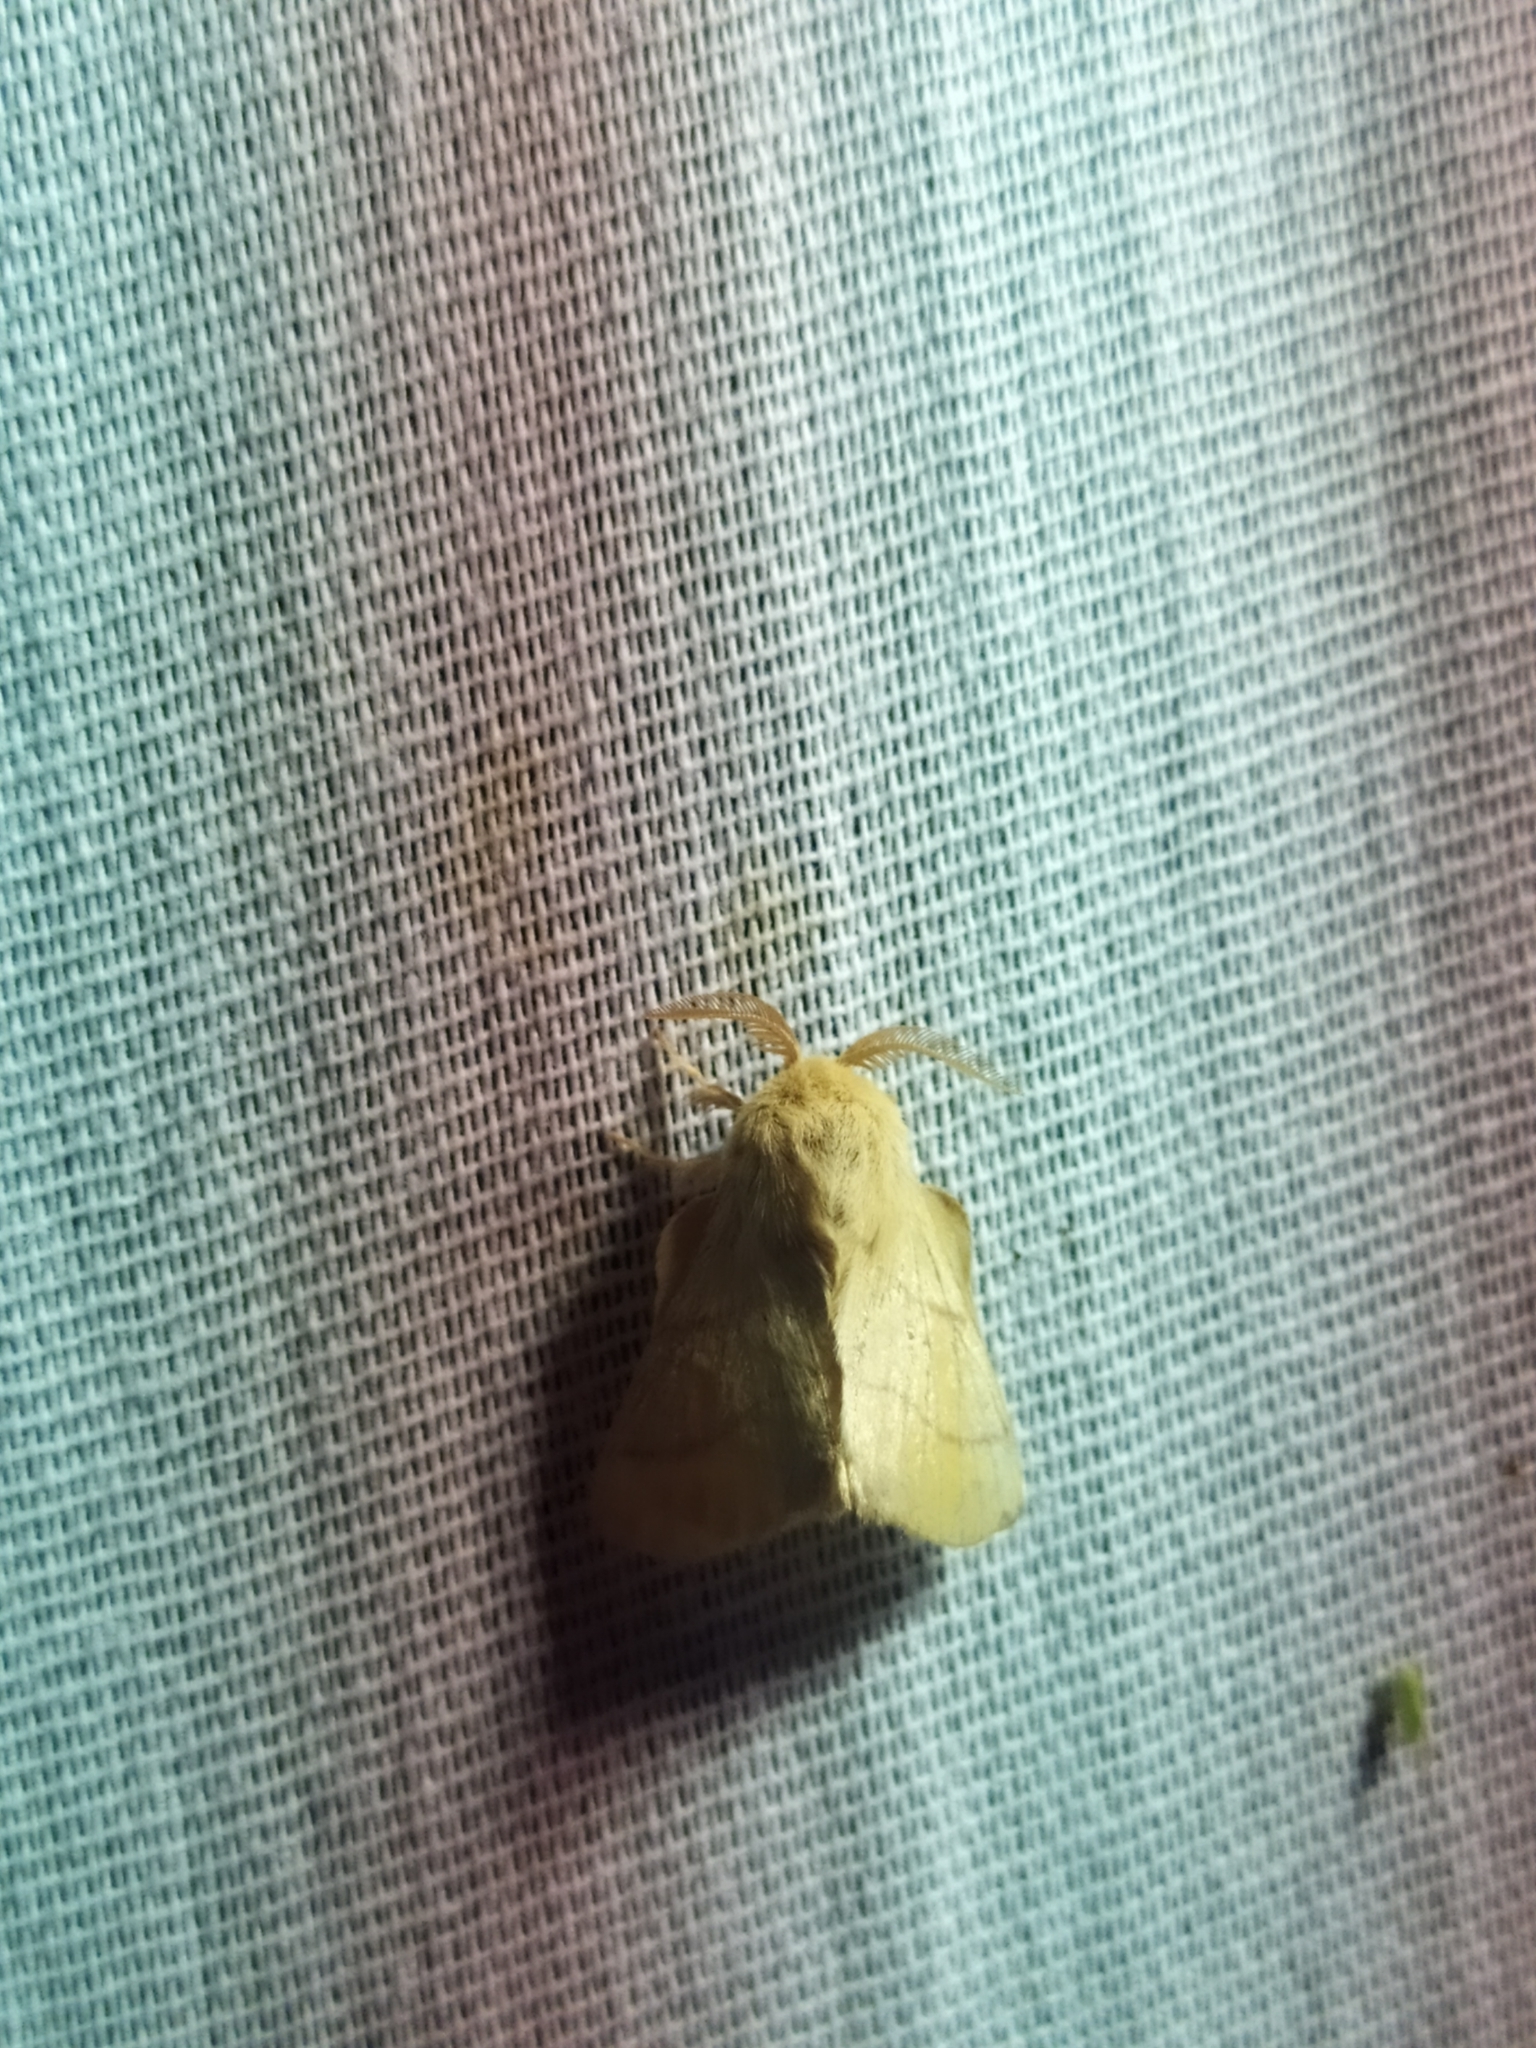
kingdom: Animalia
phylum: Arthropoda
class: Insecta
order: Lepidoptera
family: Lasiocampidae
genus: Malacosoma
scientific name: Malacosoma neustria
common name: The lackey
